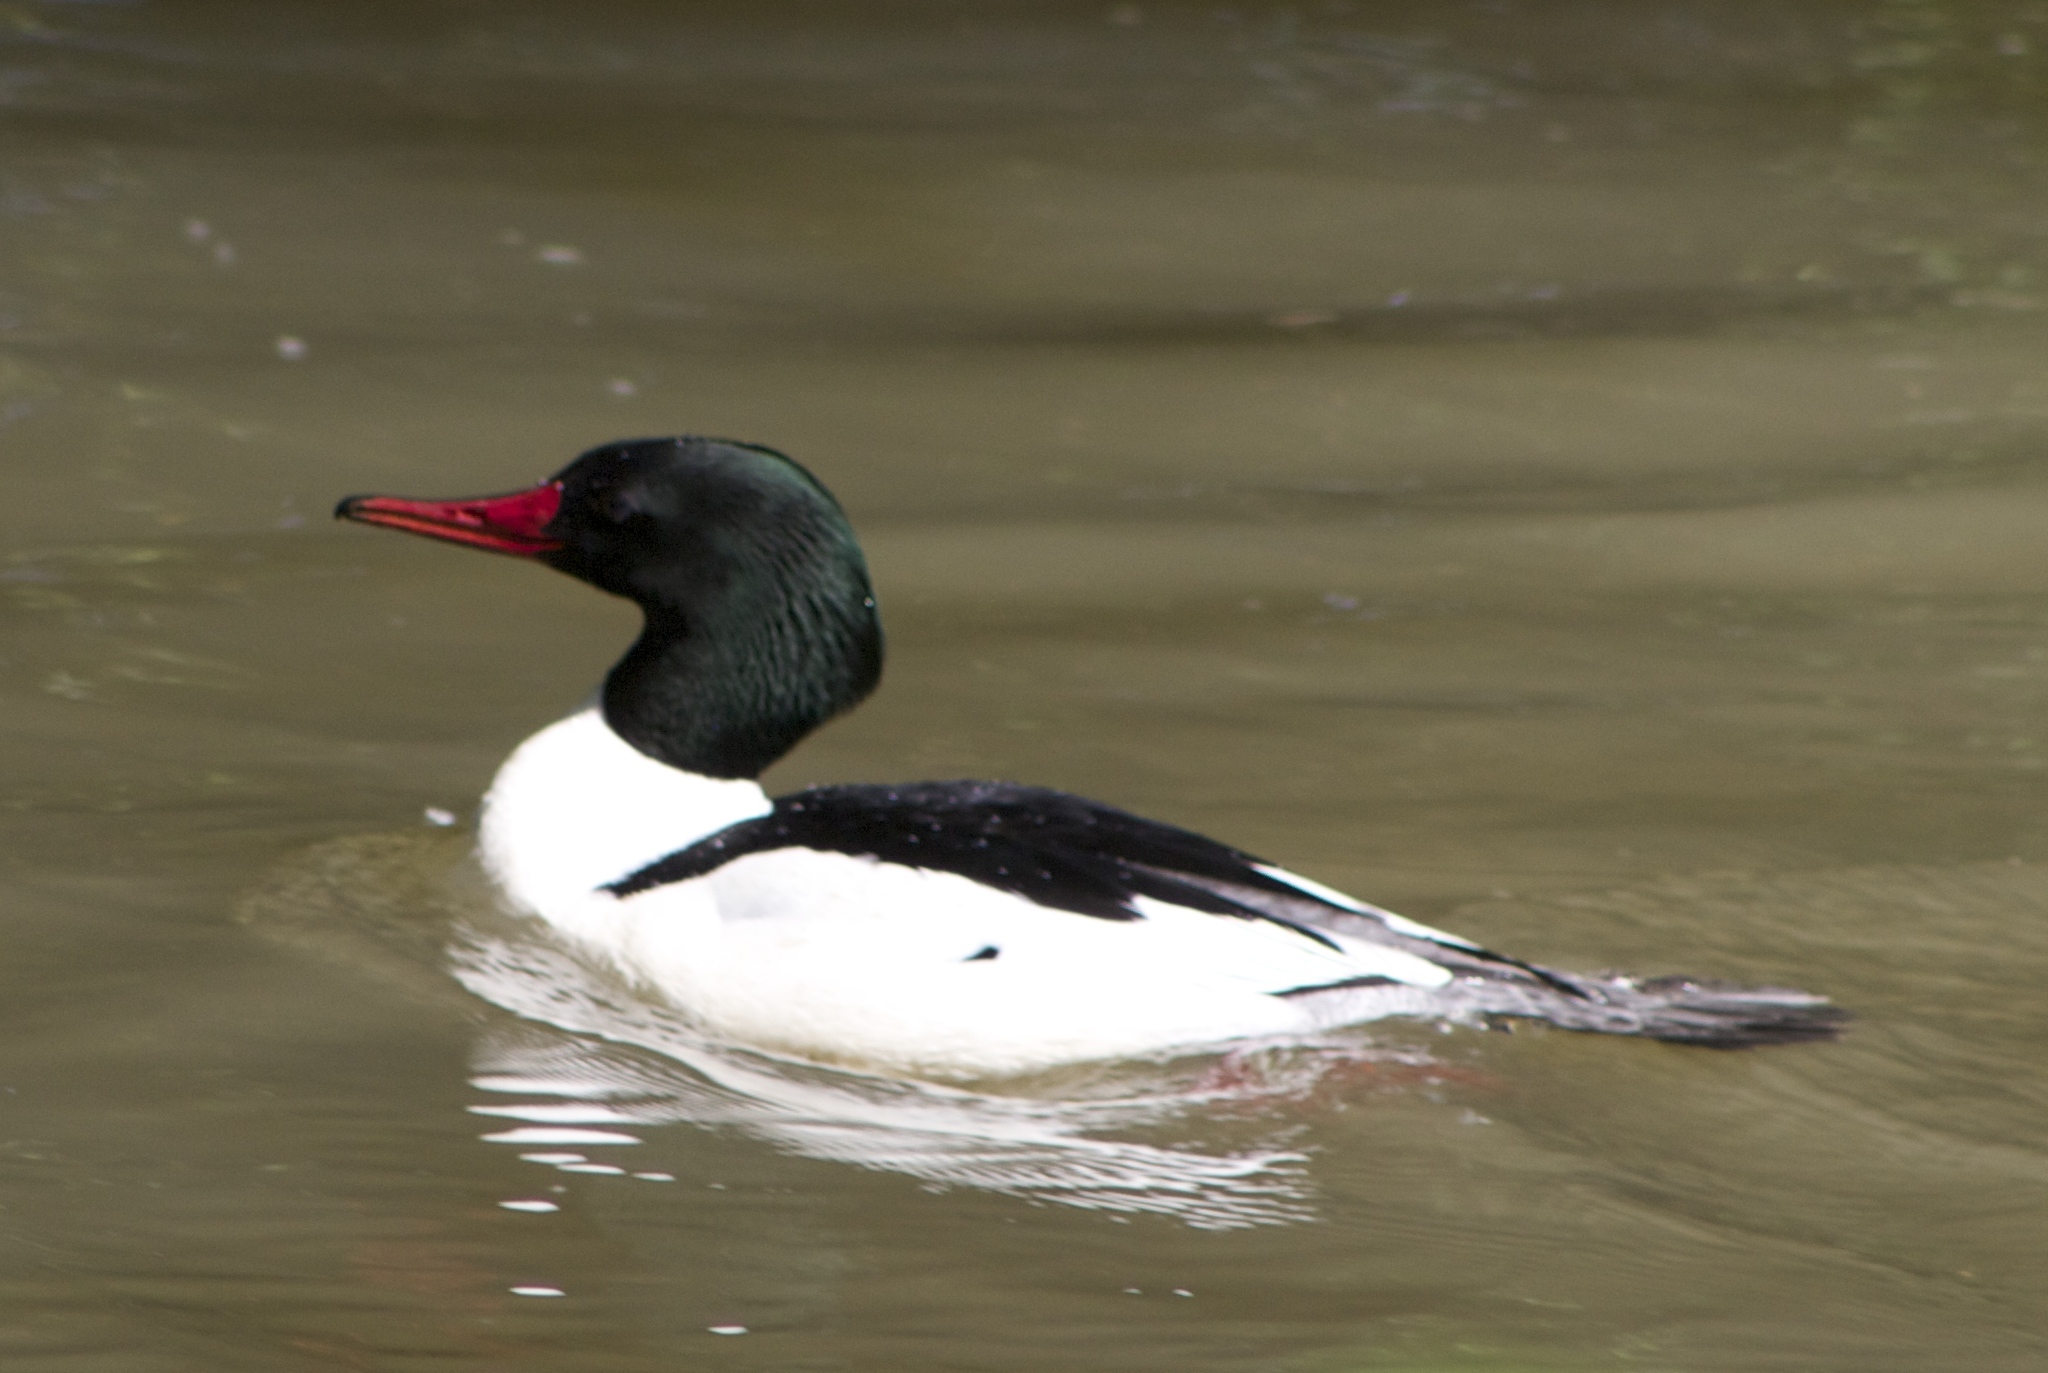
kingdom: Animalia
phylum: Chordata
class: Aves
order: Anseriformes
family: Anatidae
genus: Mergus
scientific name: Mergus merganser
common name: Common merganser
